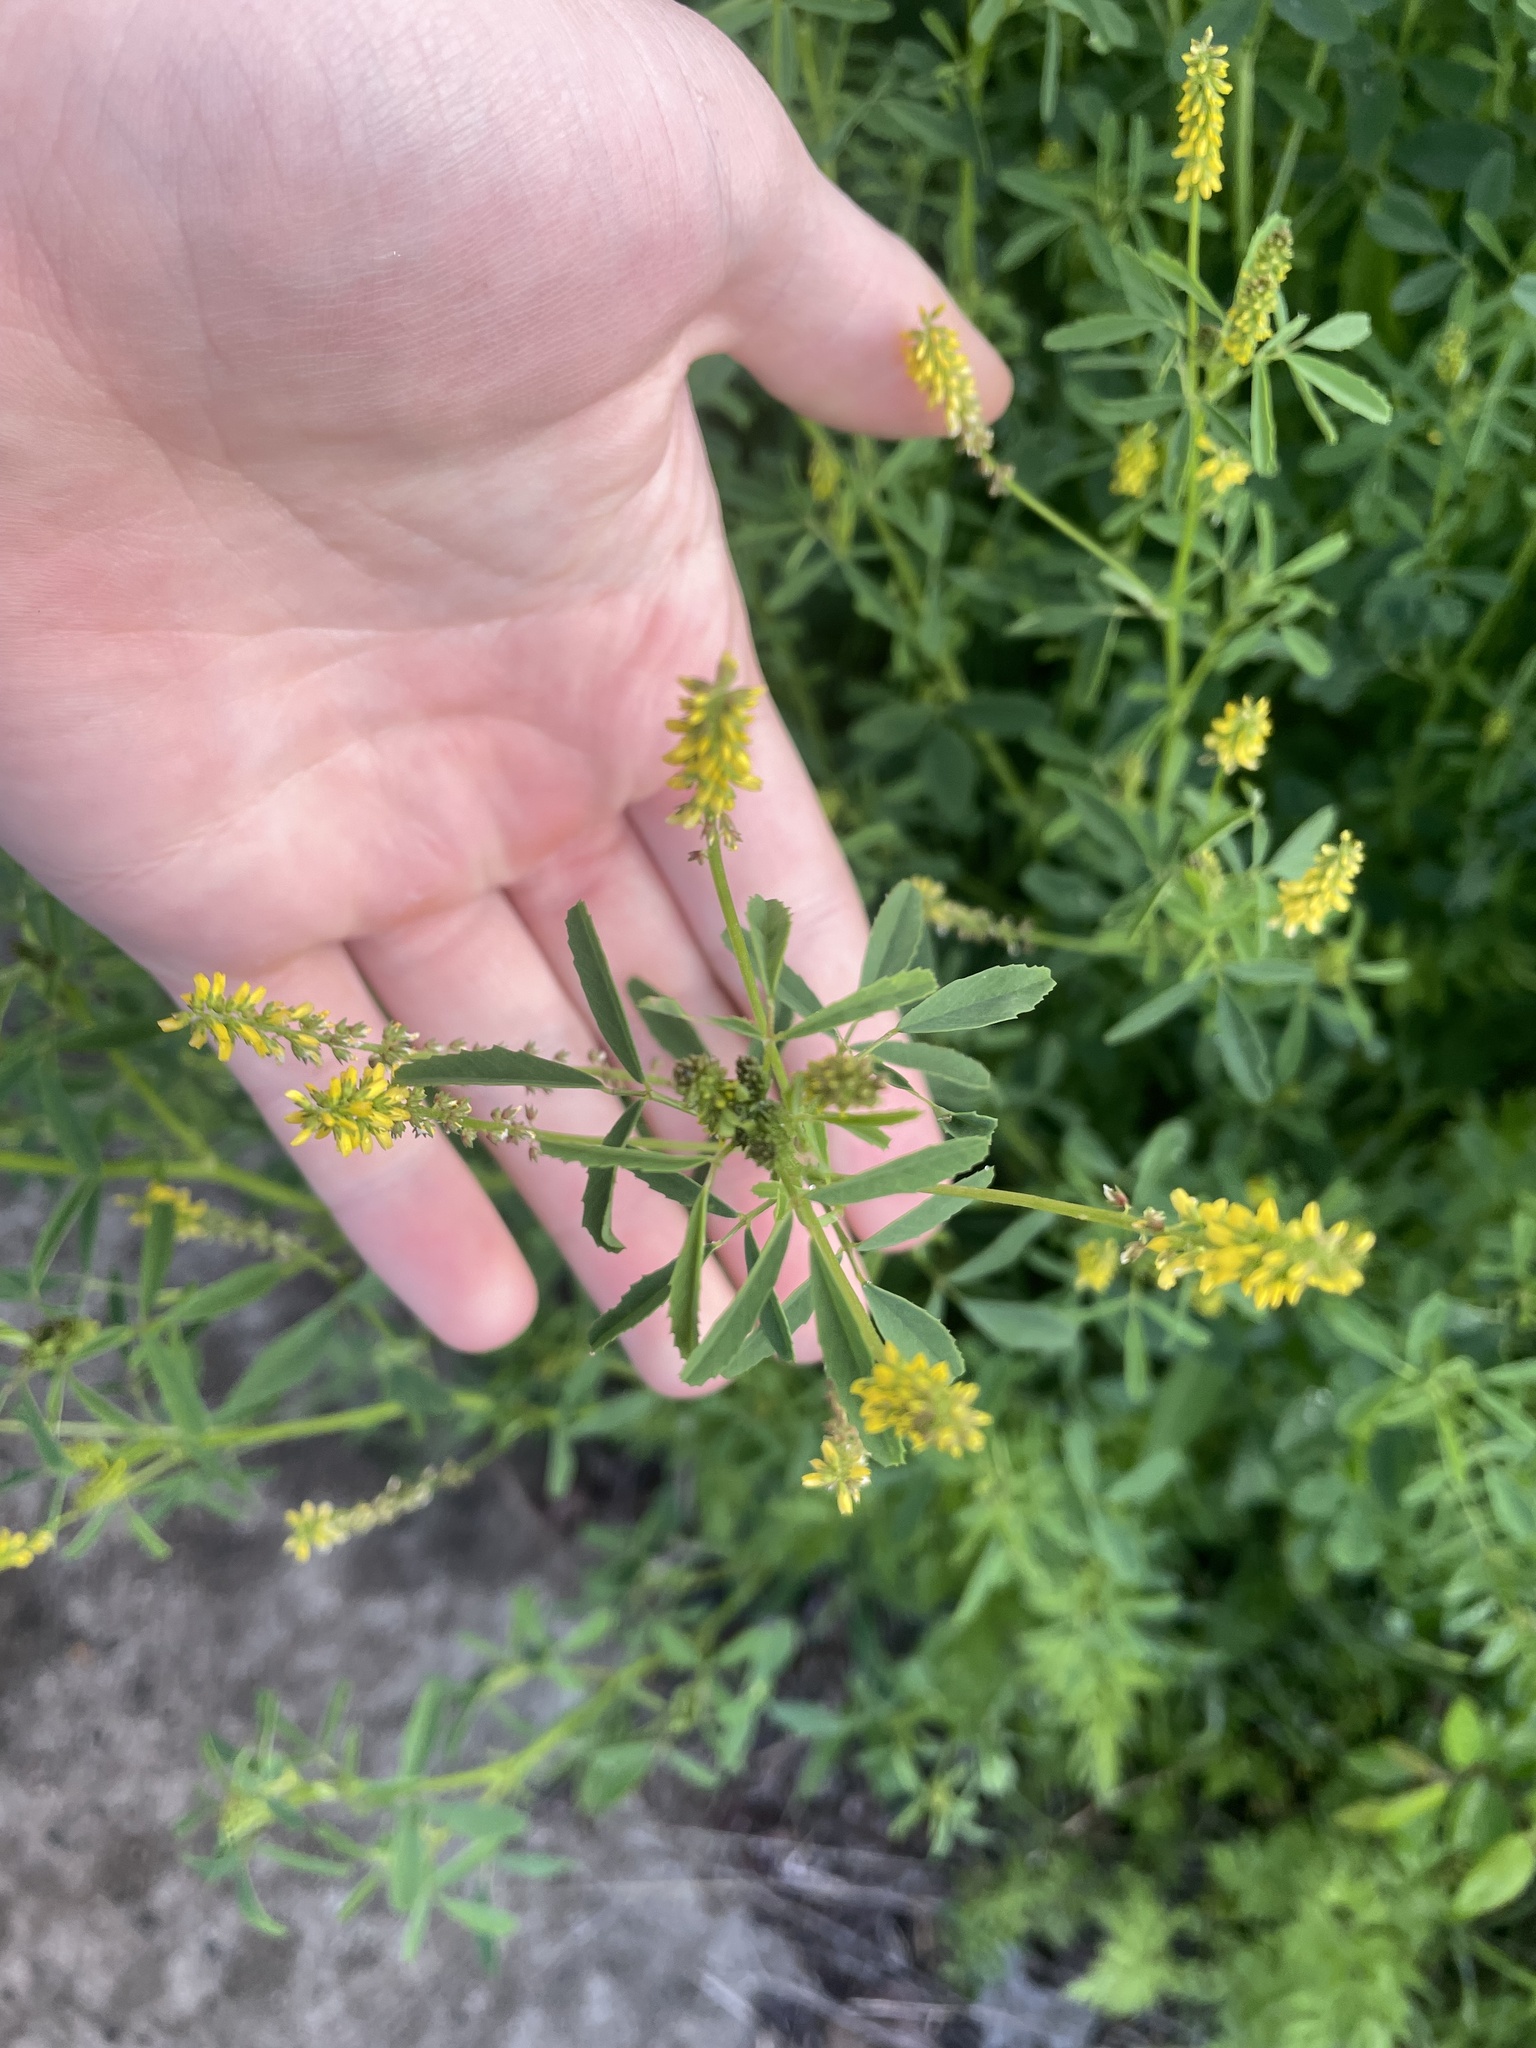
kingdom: Plantae
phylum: Tracheophyta
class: Magnoliopsida
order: Fabales
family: Fabaceae
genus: Melilotus
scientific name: Melilotus indicus
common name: Small melilot
